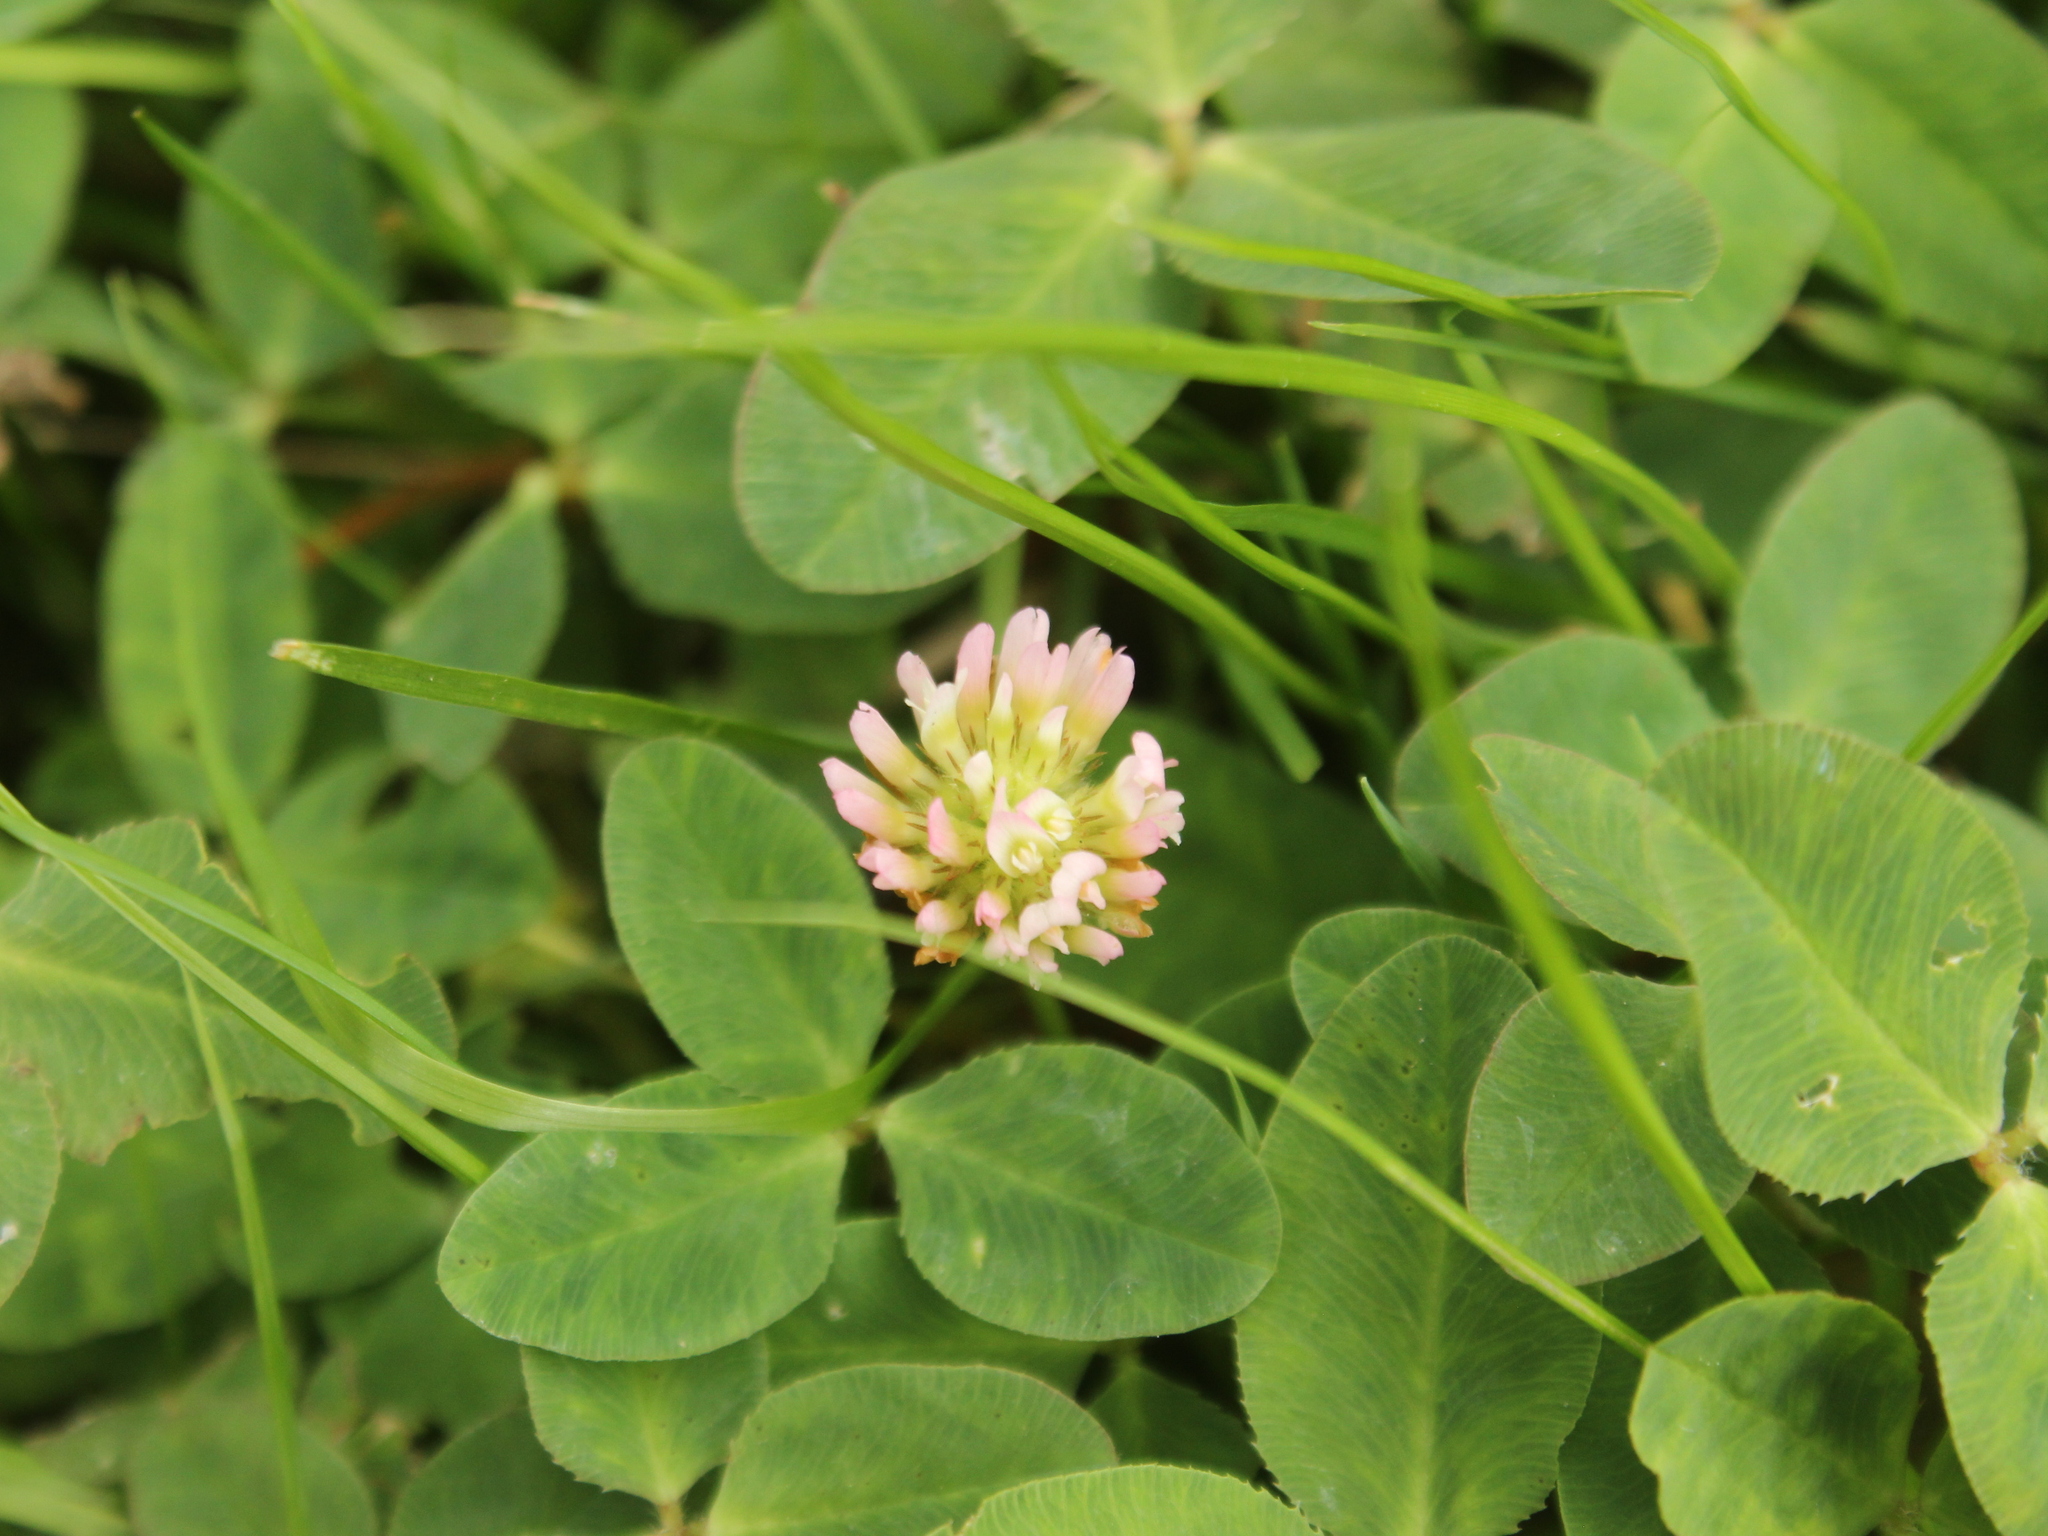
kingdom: Plantae
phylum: Tracheophyta
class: Magnoliopsida
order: Fabales
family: Fabaceae
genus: Trifolium
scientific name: Trifolium fragiferum
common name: Strawberry clover
